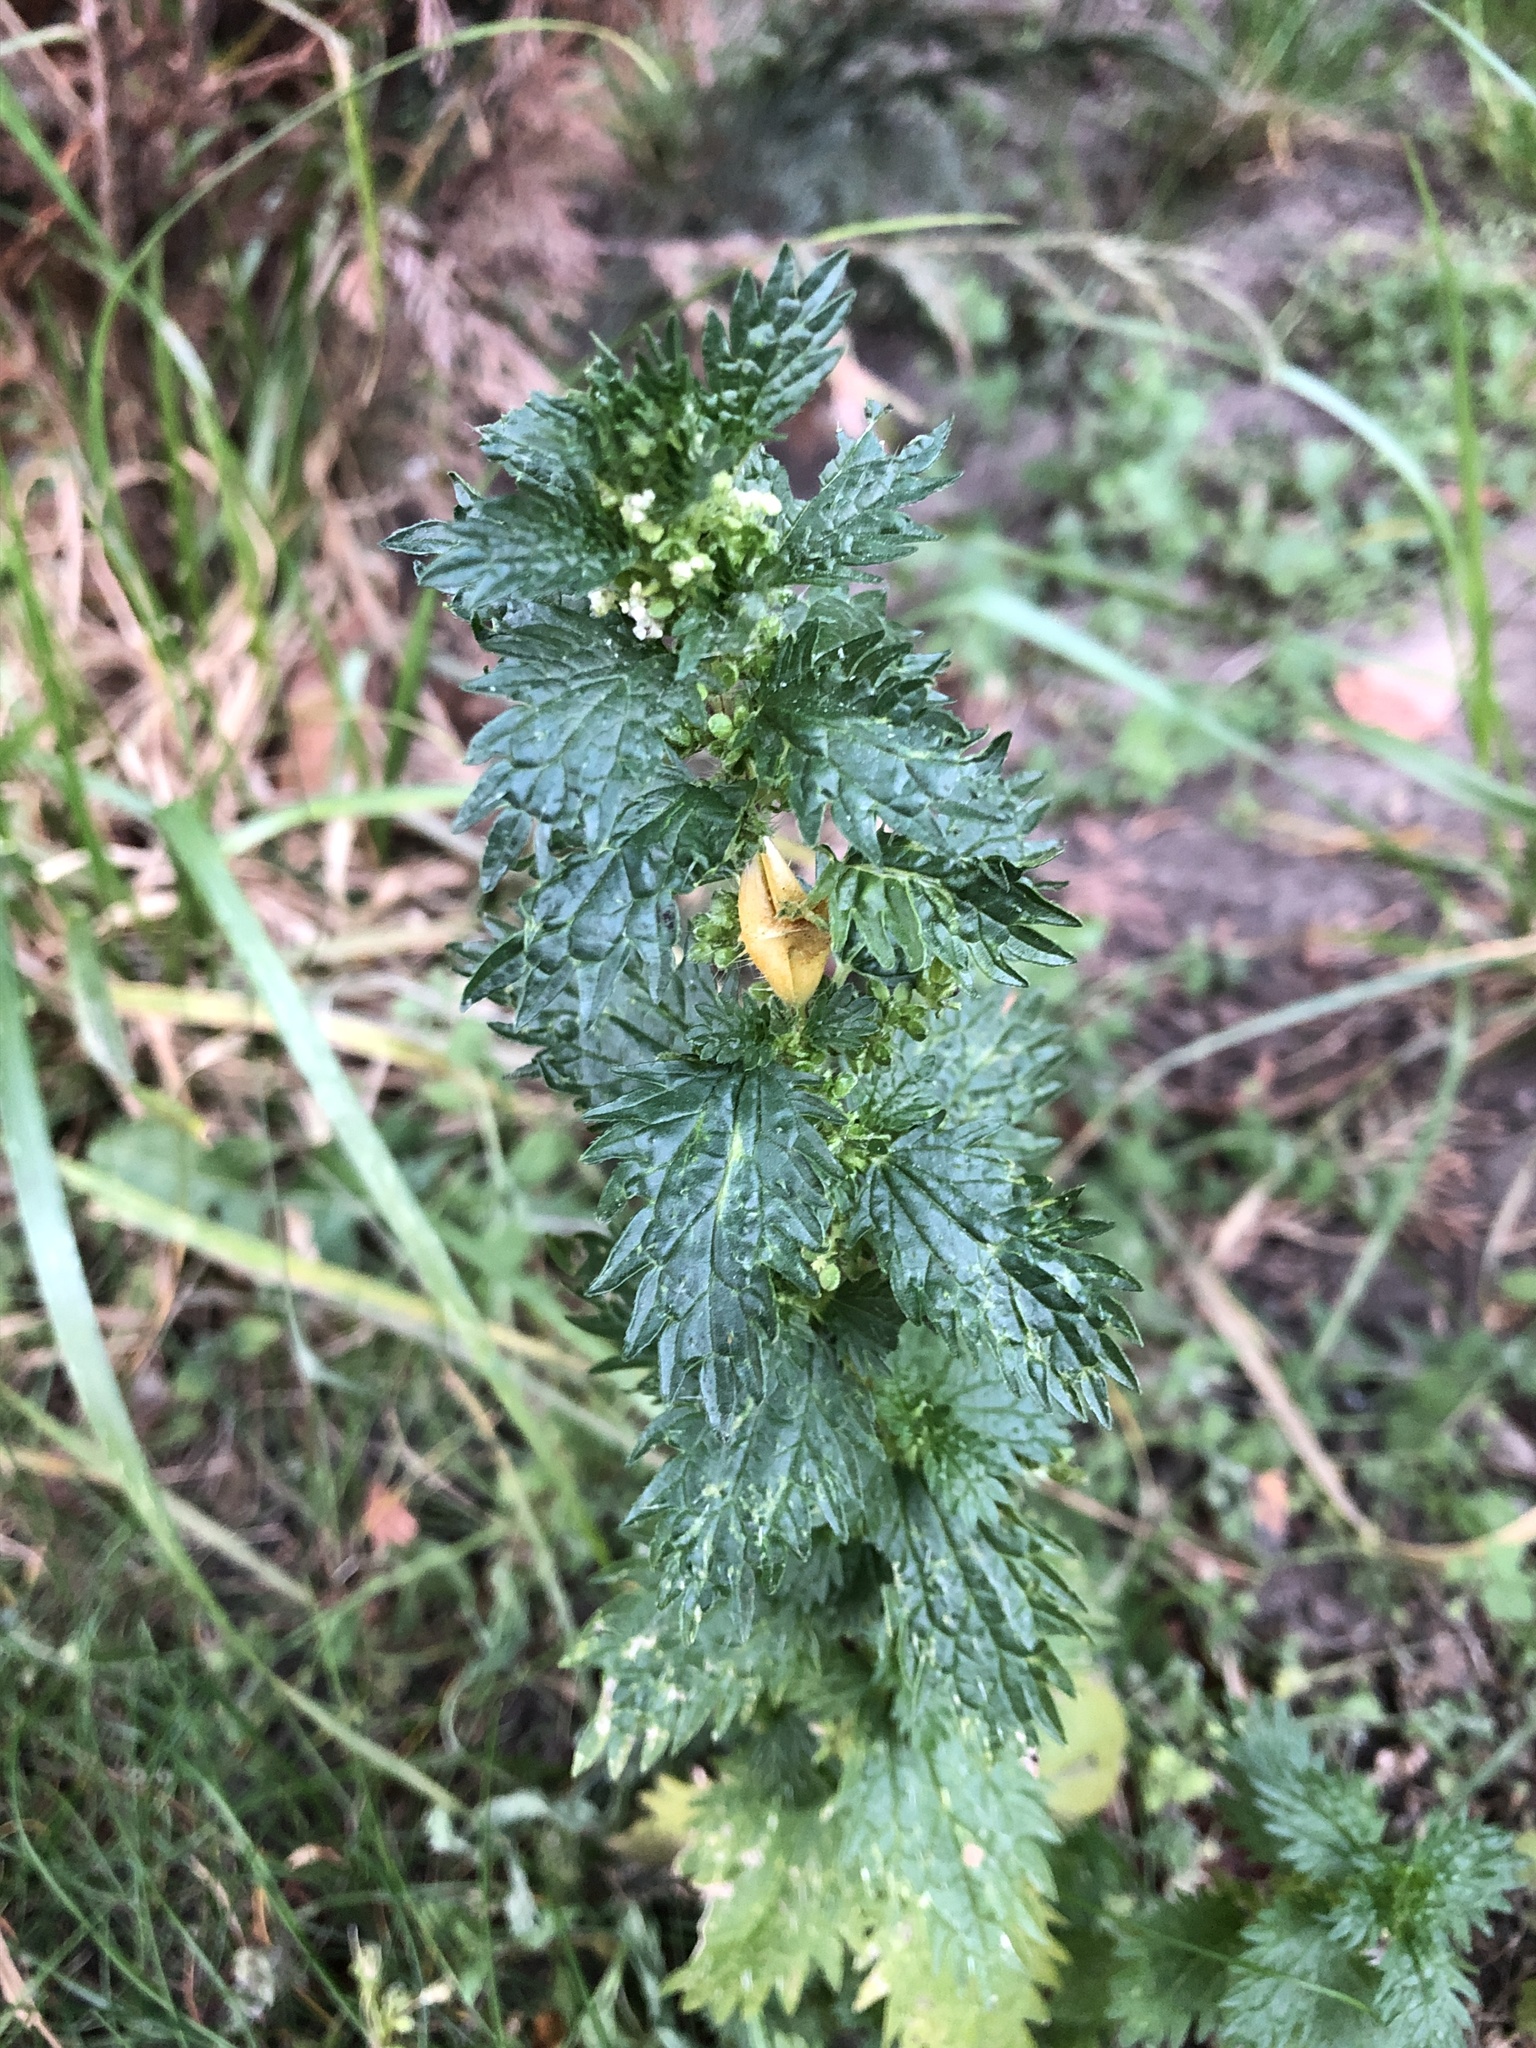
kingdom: Plantae
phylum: Tracheophyta
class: Magnoliopsida
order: Rosales
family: Urticaceae
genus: Urtica
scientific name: Urtica urens
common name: Dwarf nettle
